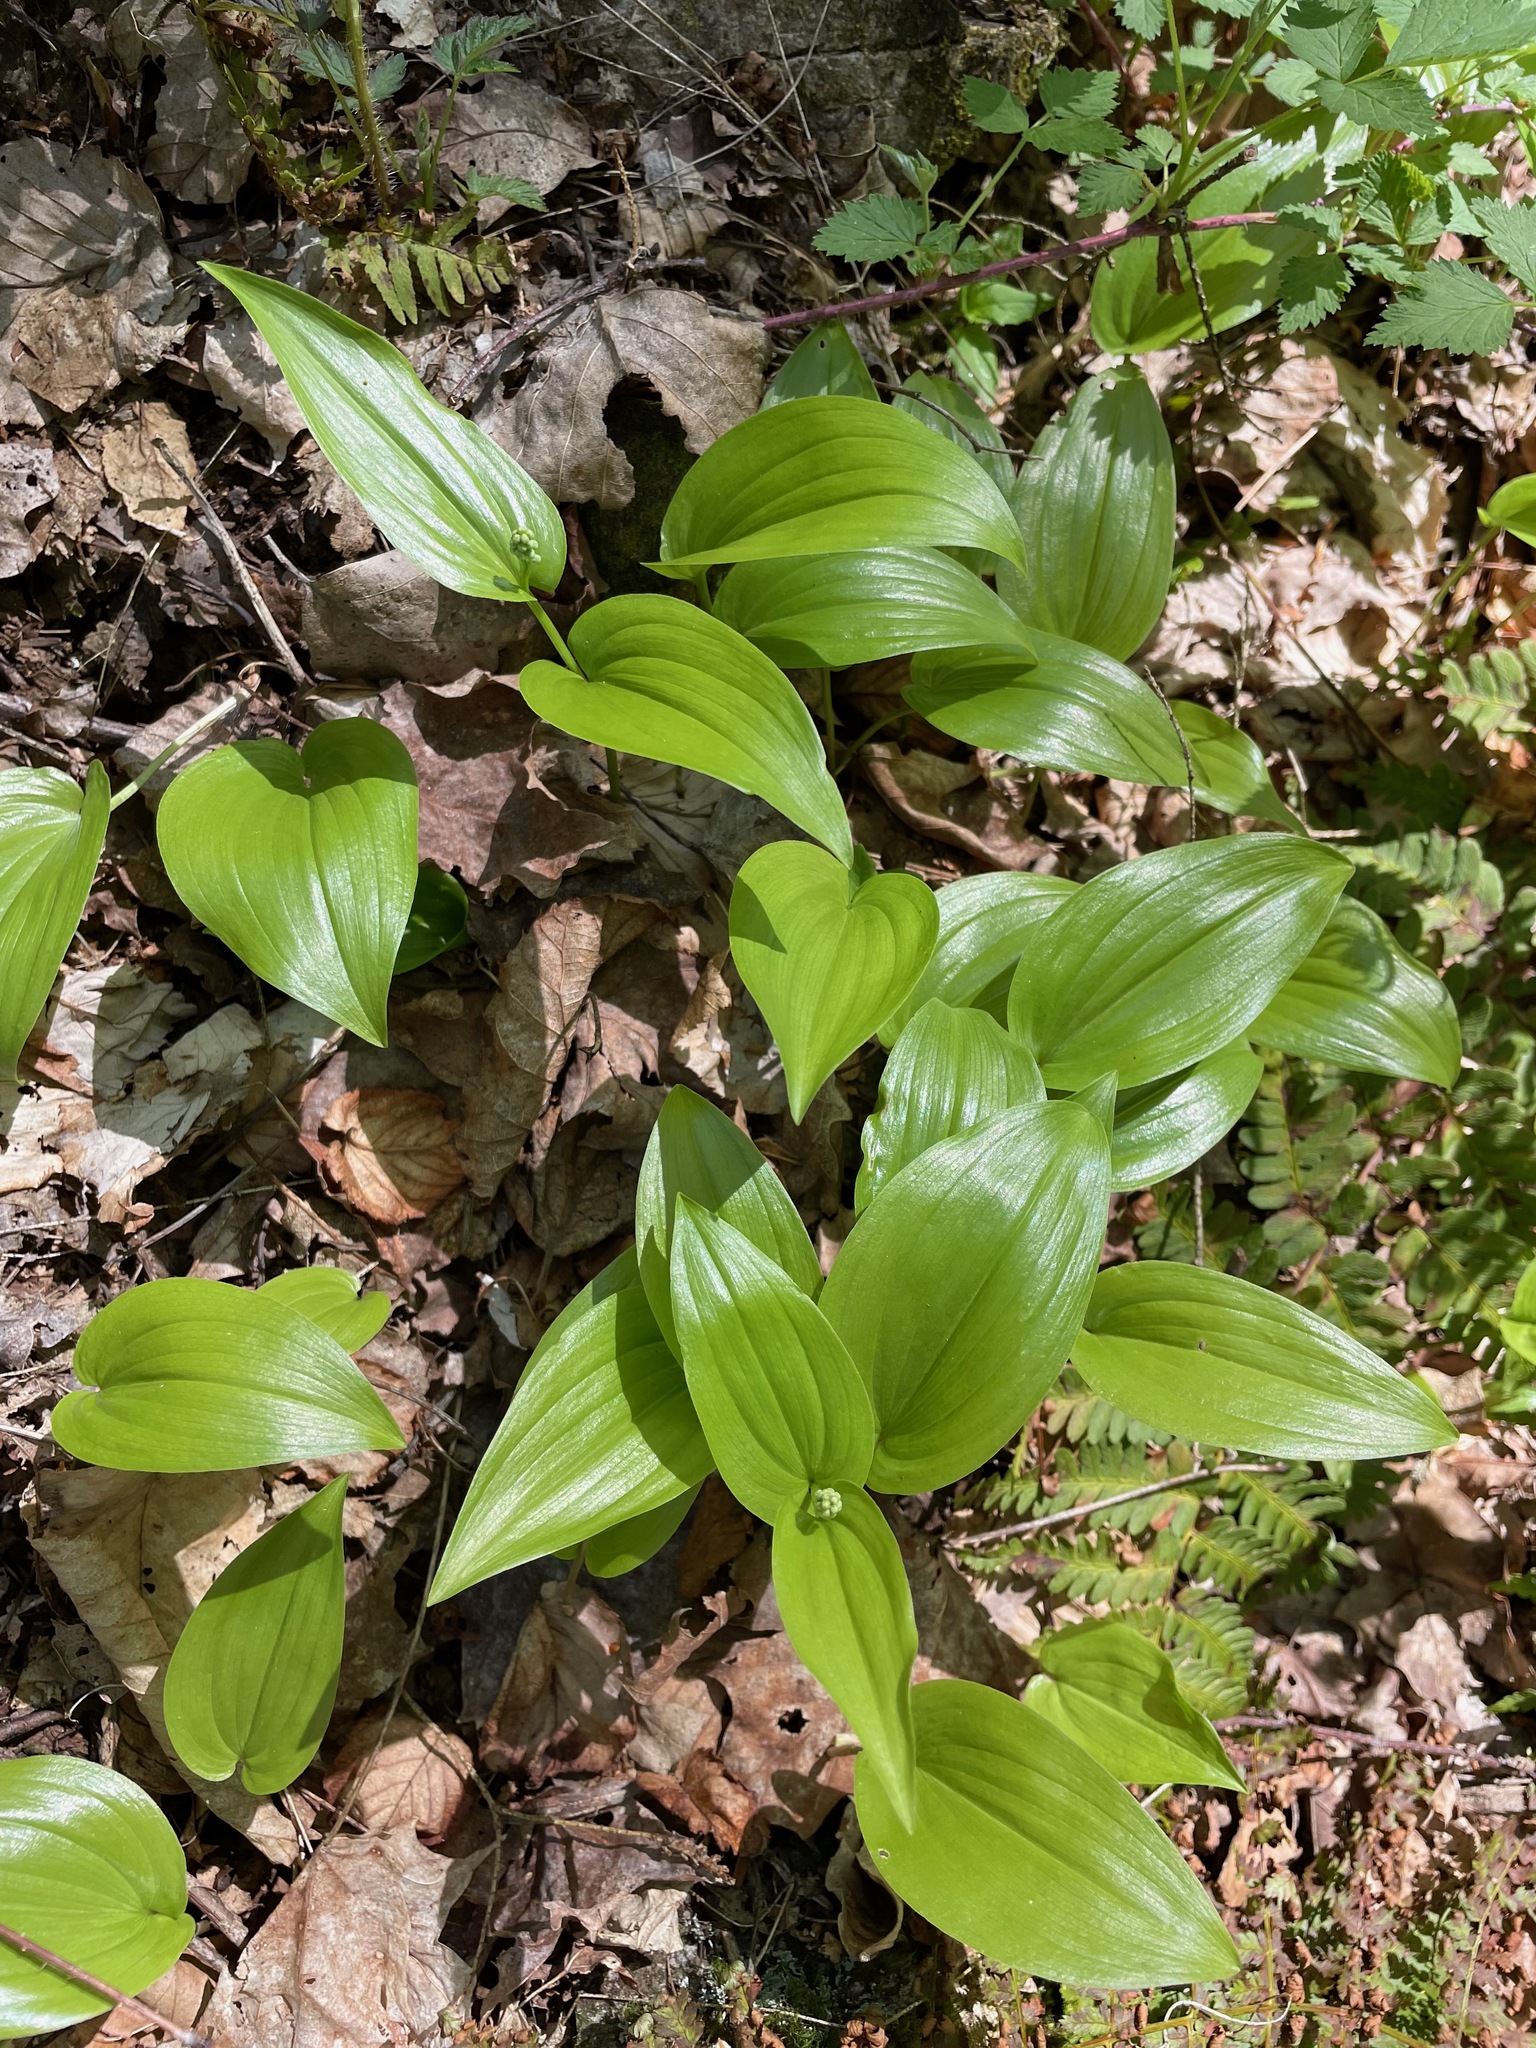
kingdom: Plantae
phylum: Tracheophyta
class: Liliopsida
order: Asparagales
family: Asparagaceae
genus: Maianthemum
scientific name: Maianthemum canadense
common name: False lily-of-the-valley
